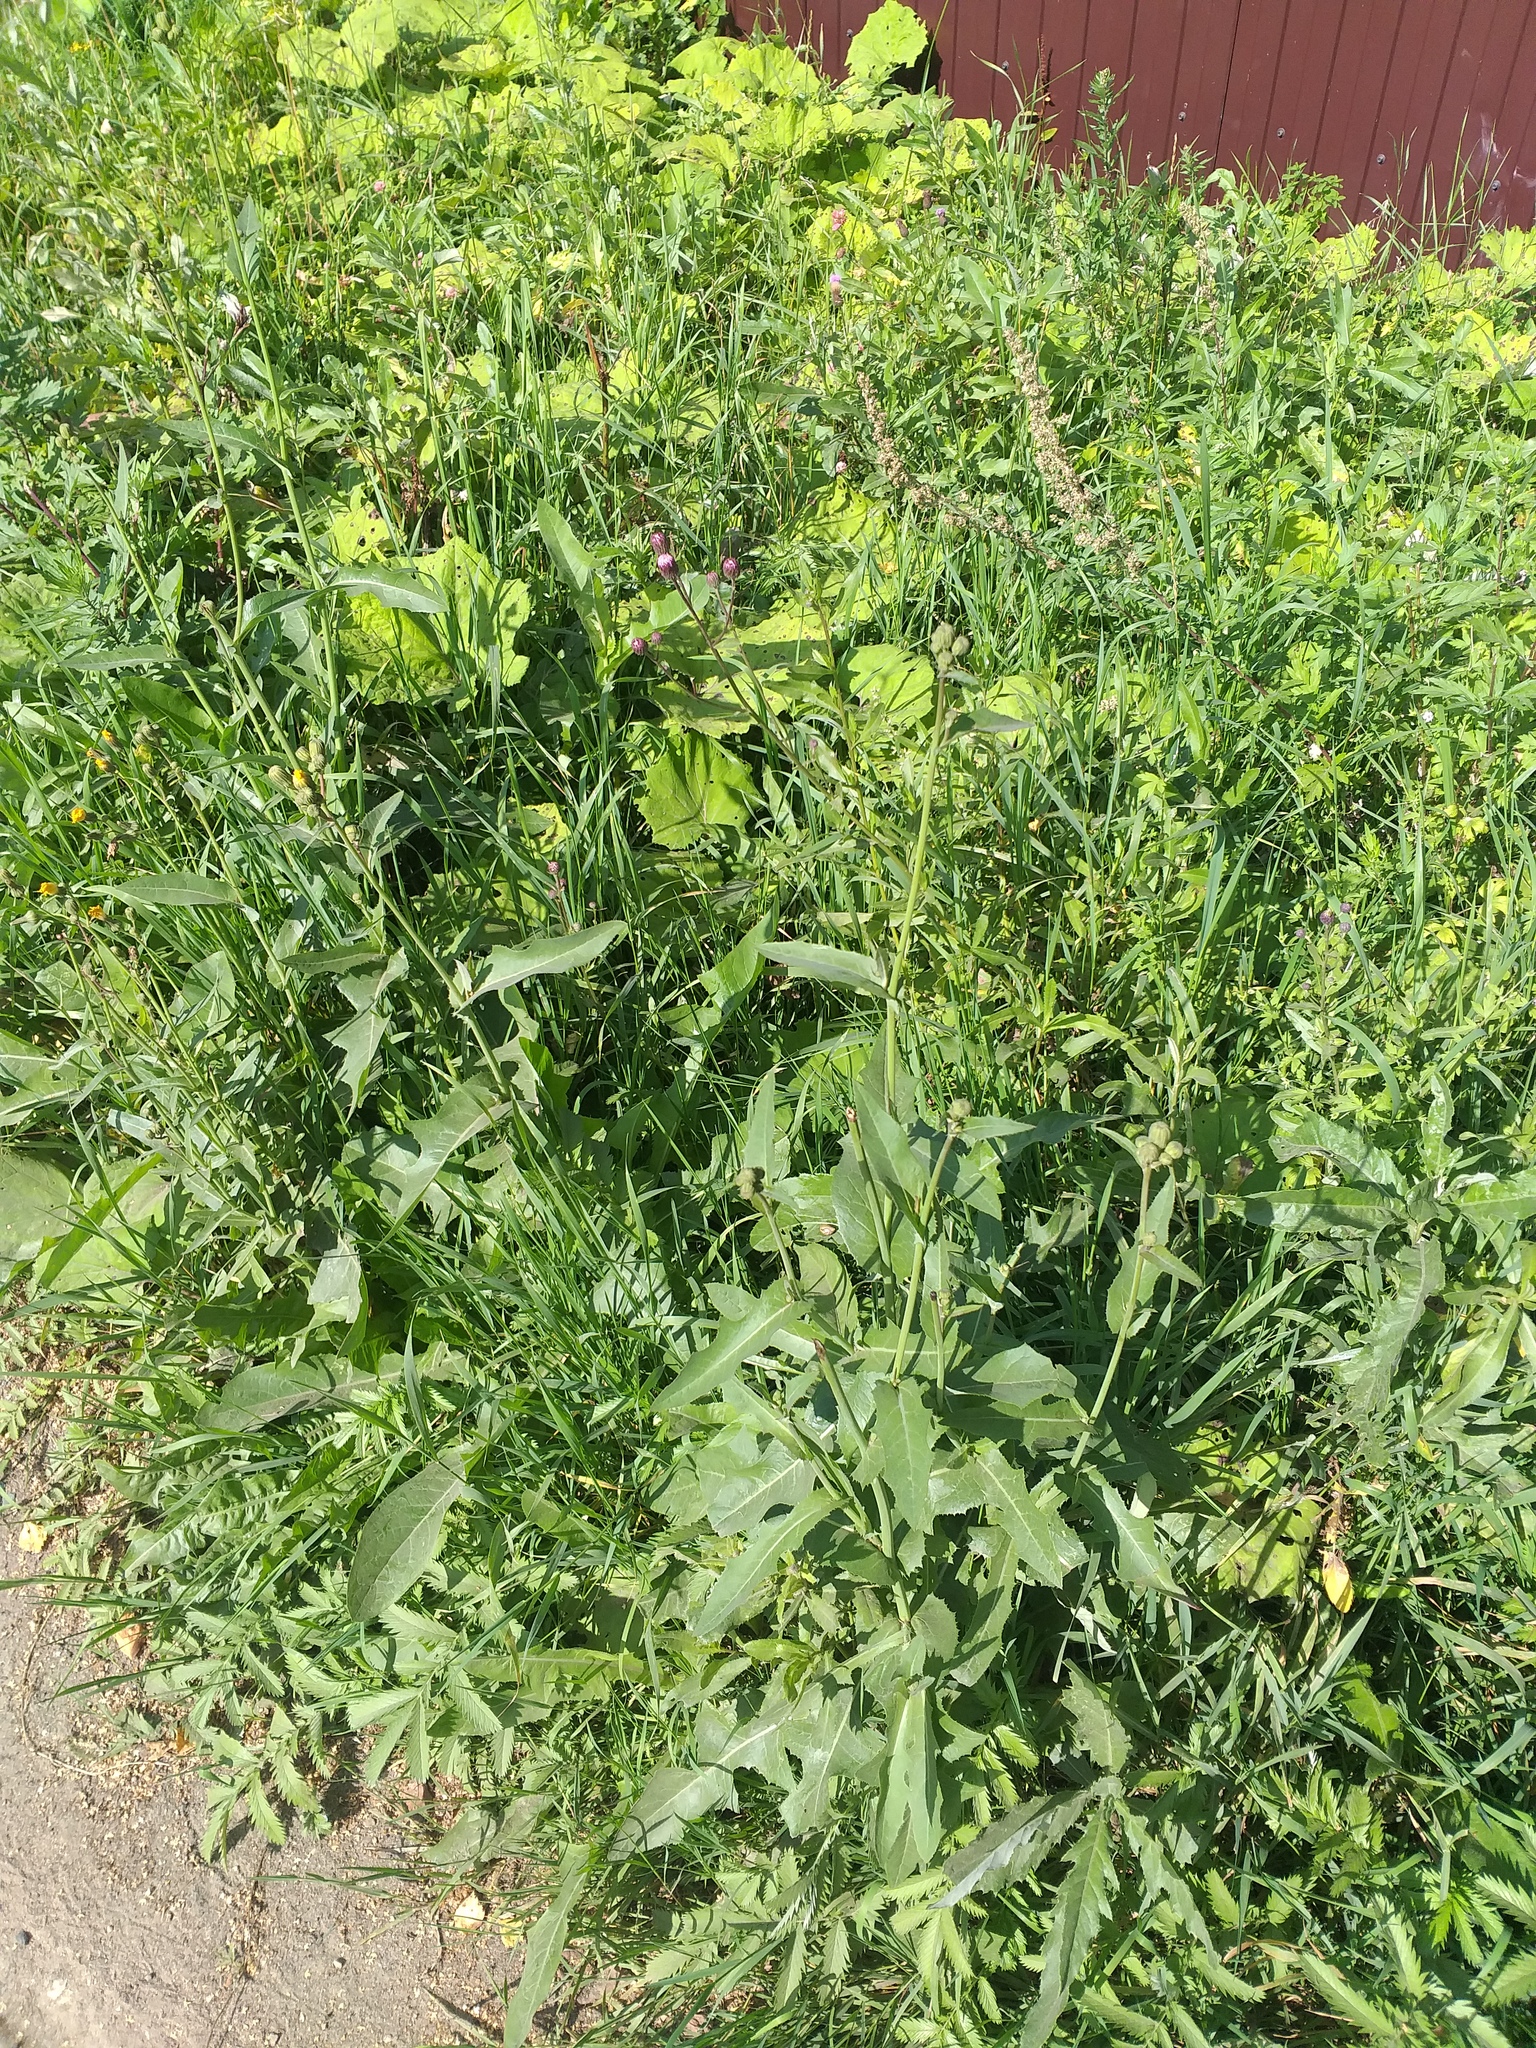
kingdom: Plantae
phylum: Tracheophyta
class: Magnoliopsida
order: Asterales
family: Asteraceae
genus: Sonchus
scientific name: Sonchus arvensis
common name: Perennial sow-thistle
